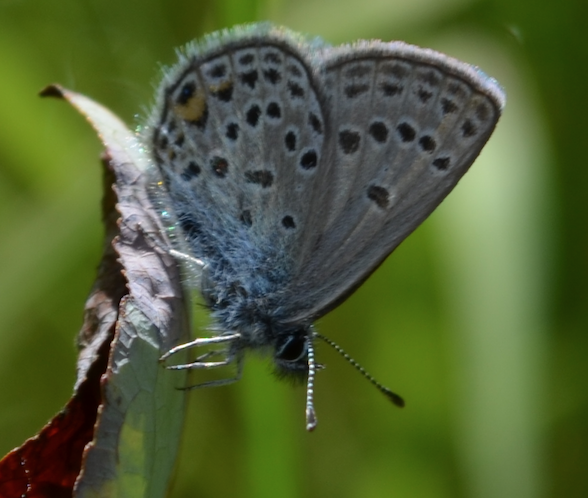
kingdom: Animalia
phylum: Arthropoda
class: Insecta
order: Lepidoptera
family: Lycaenidae
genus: Vacciniina
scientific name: Vacciniina optilete
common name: Cranberry blue
